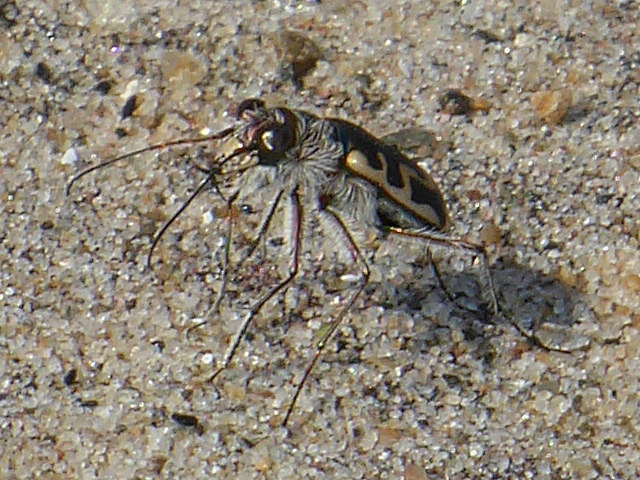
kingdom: Animalia
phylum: Arthropoda
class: Insecta
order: Coleoptera
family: Carabidae
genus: Cicindela
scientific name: Cicindela hirticollis
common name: Hairy-necked tiger beetle
